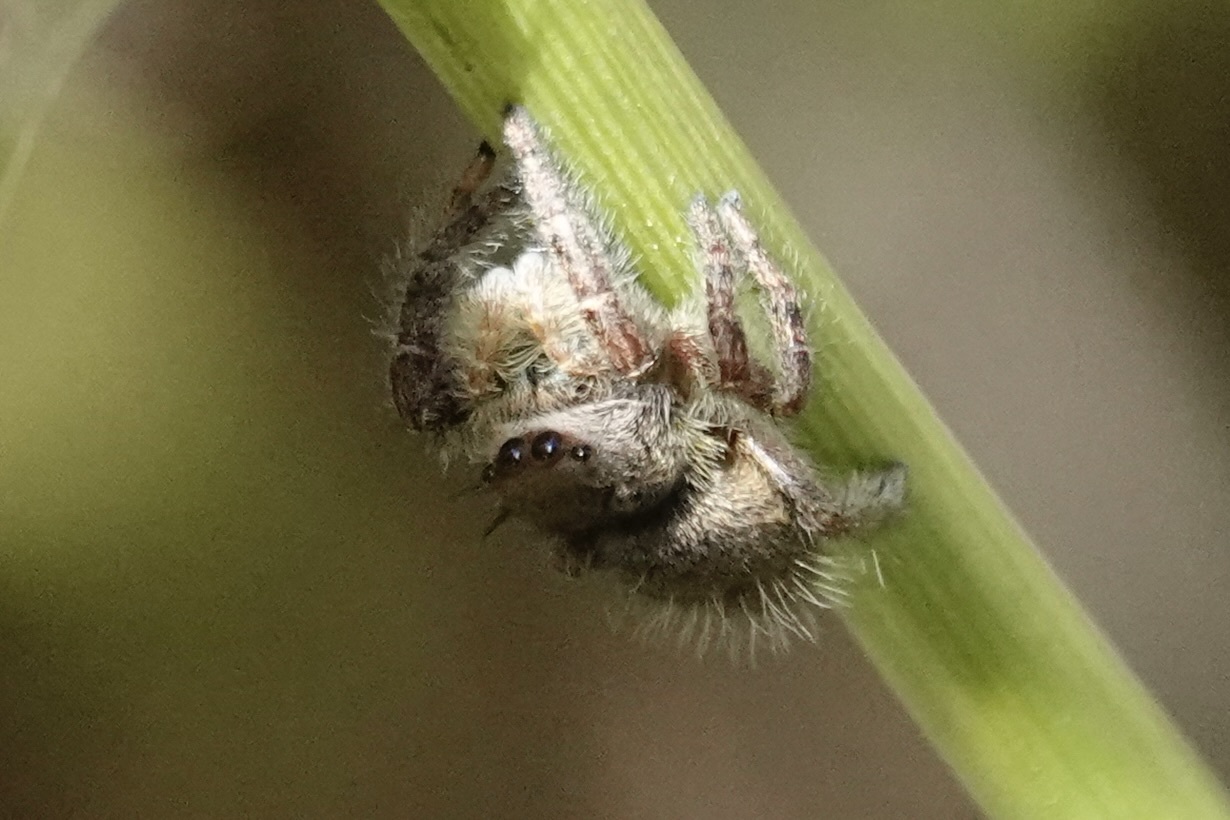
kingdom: Animalia
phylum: Arthropoda
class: Arachnida
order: Araneae
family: Salticidae
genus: Phidippus
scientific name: Phidippus princeps
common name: Grayish jumping spider
